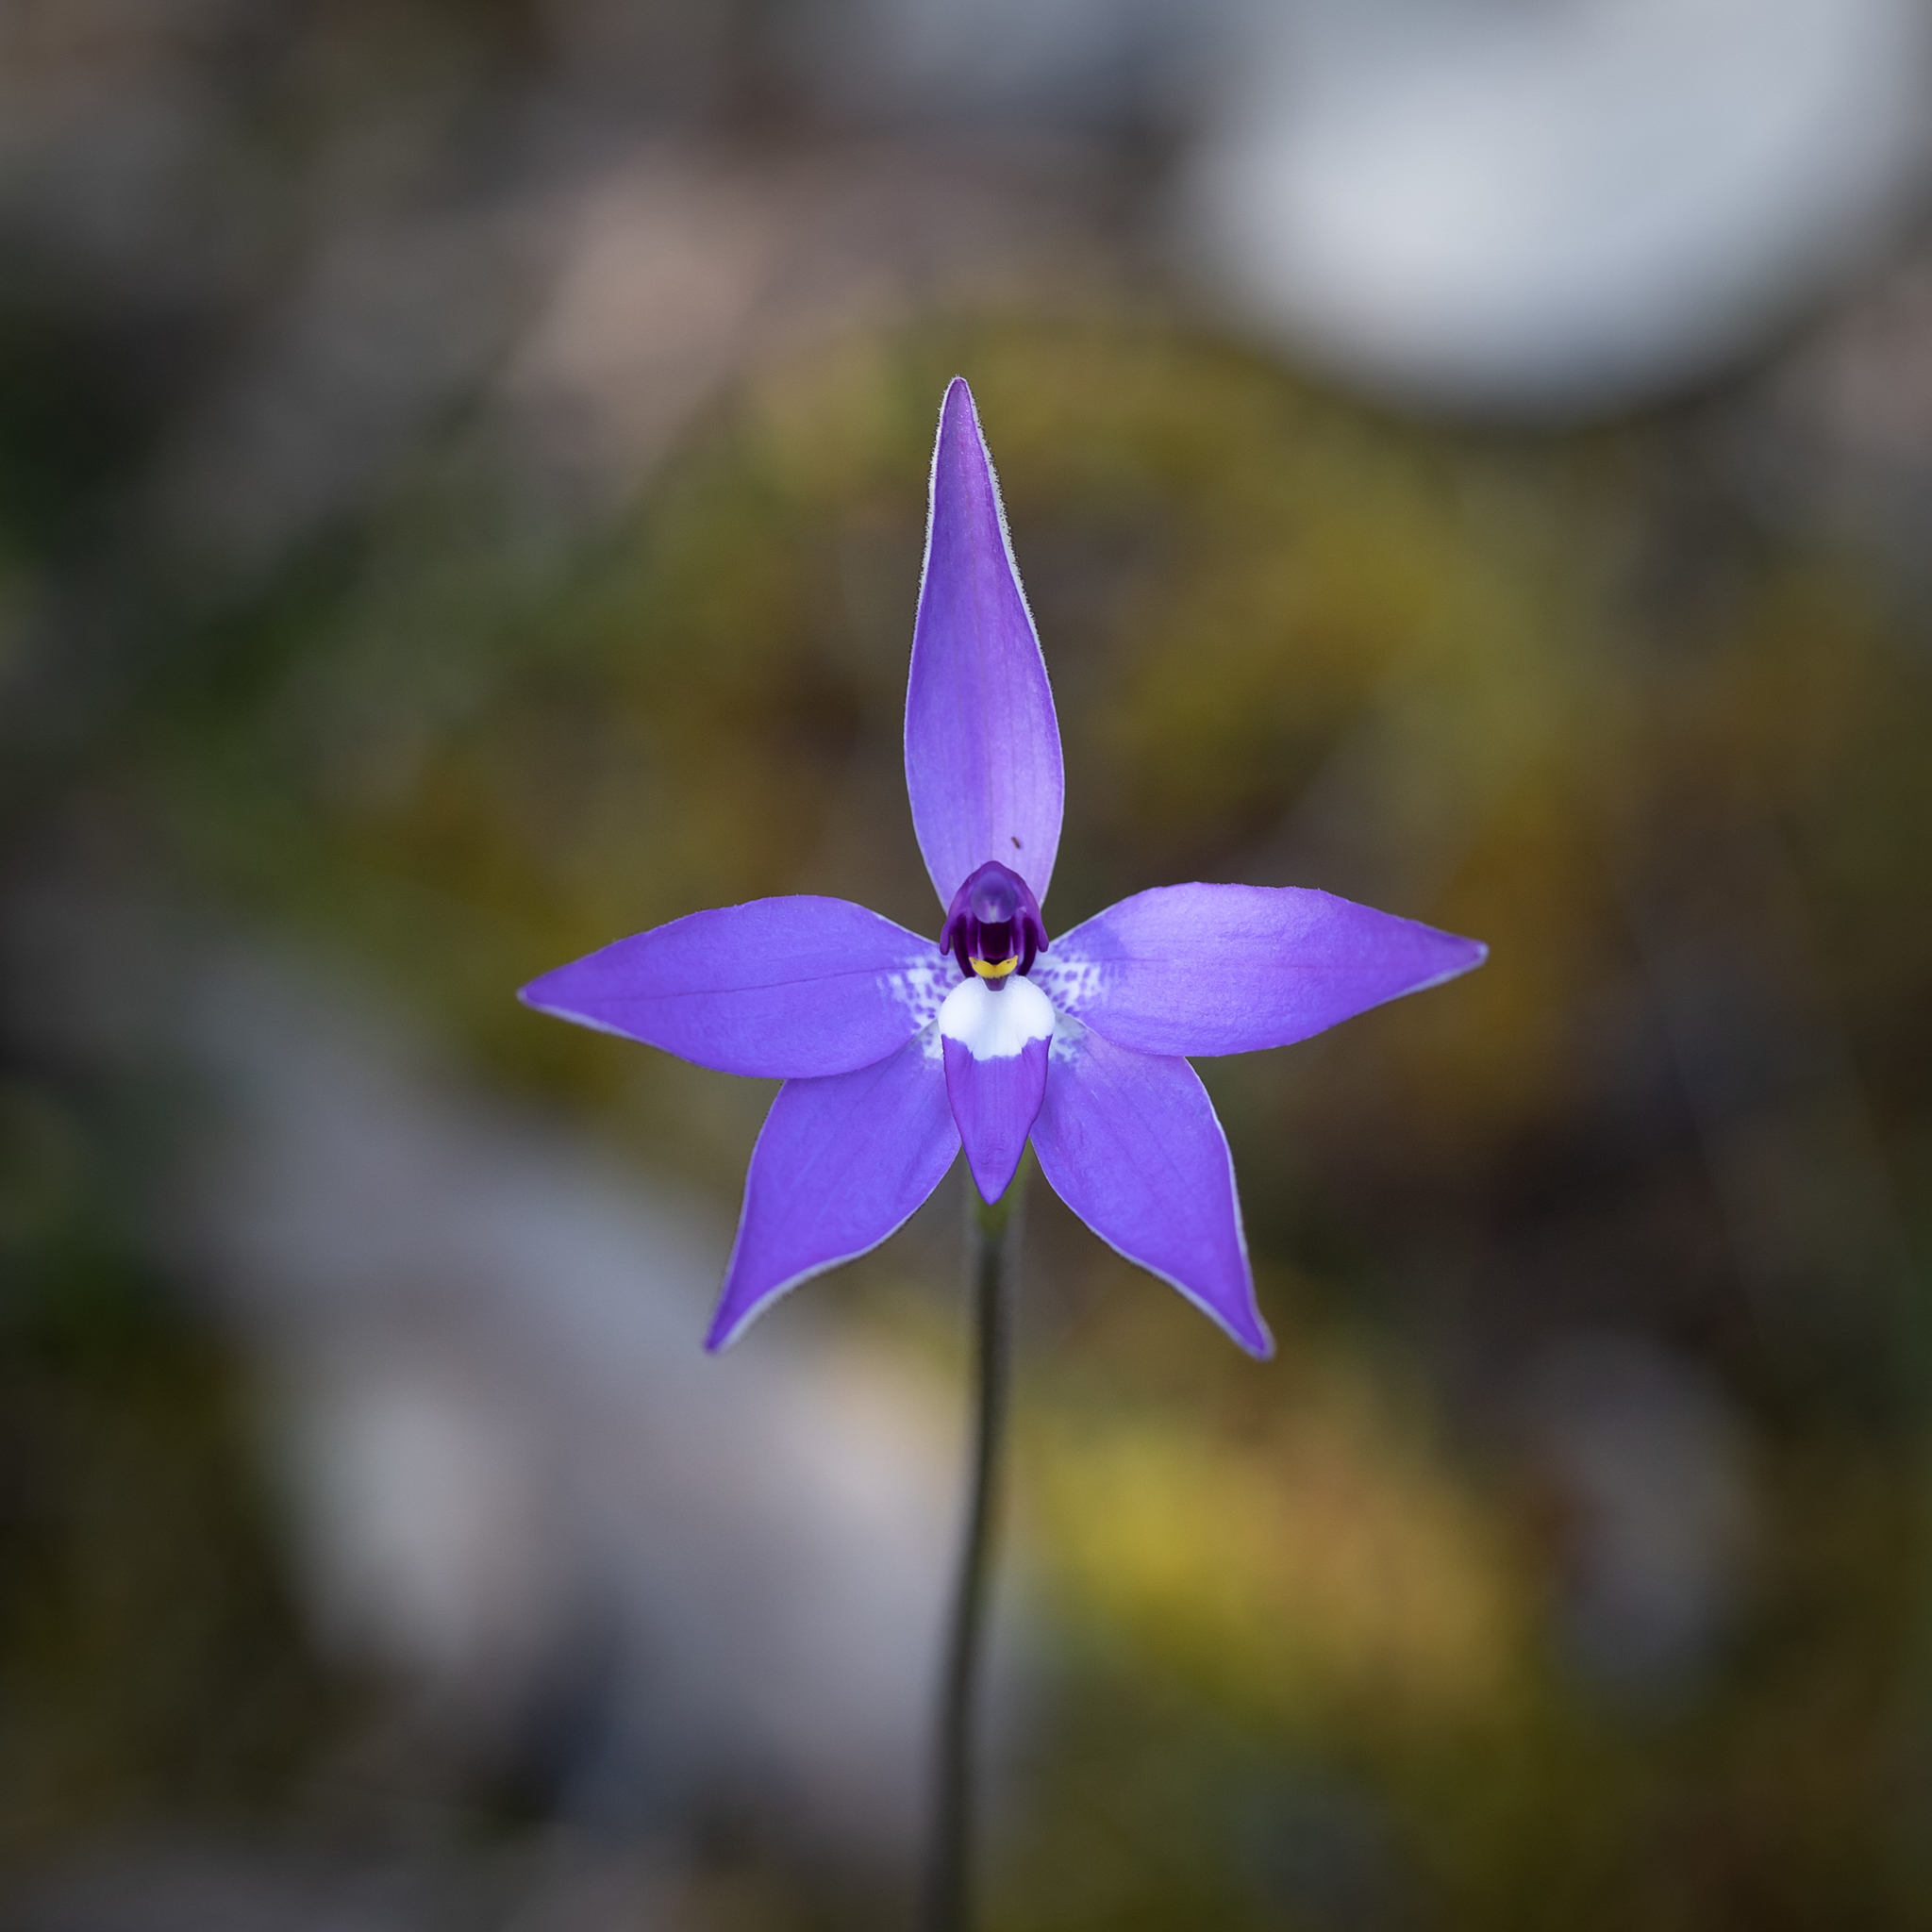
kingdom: Plantae
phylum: Tracheophyta
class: Liliopsida
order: Asparagales
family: Orchidaceae
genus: Caladenia
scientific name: Caladenia major
